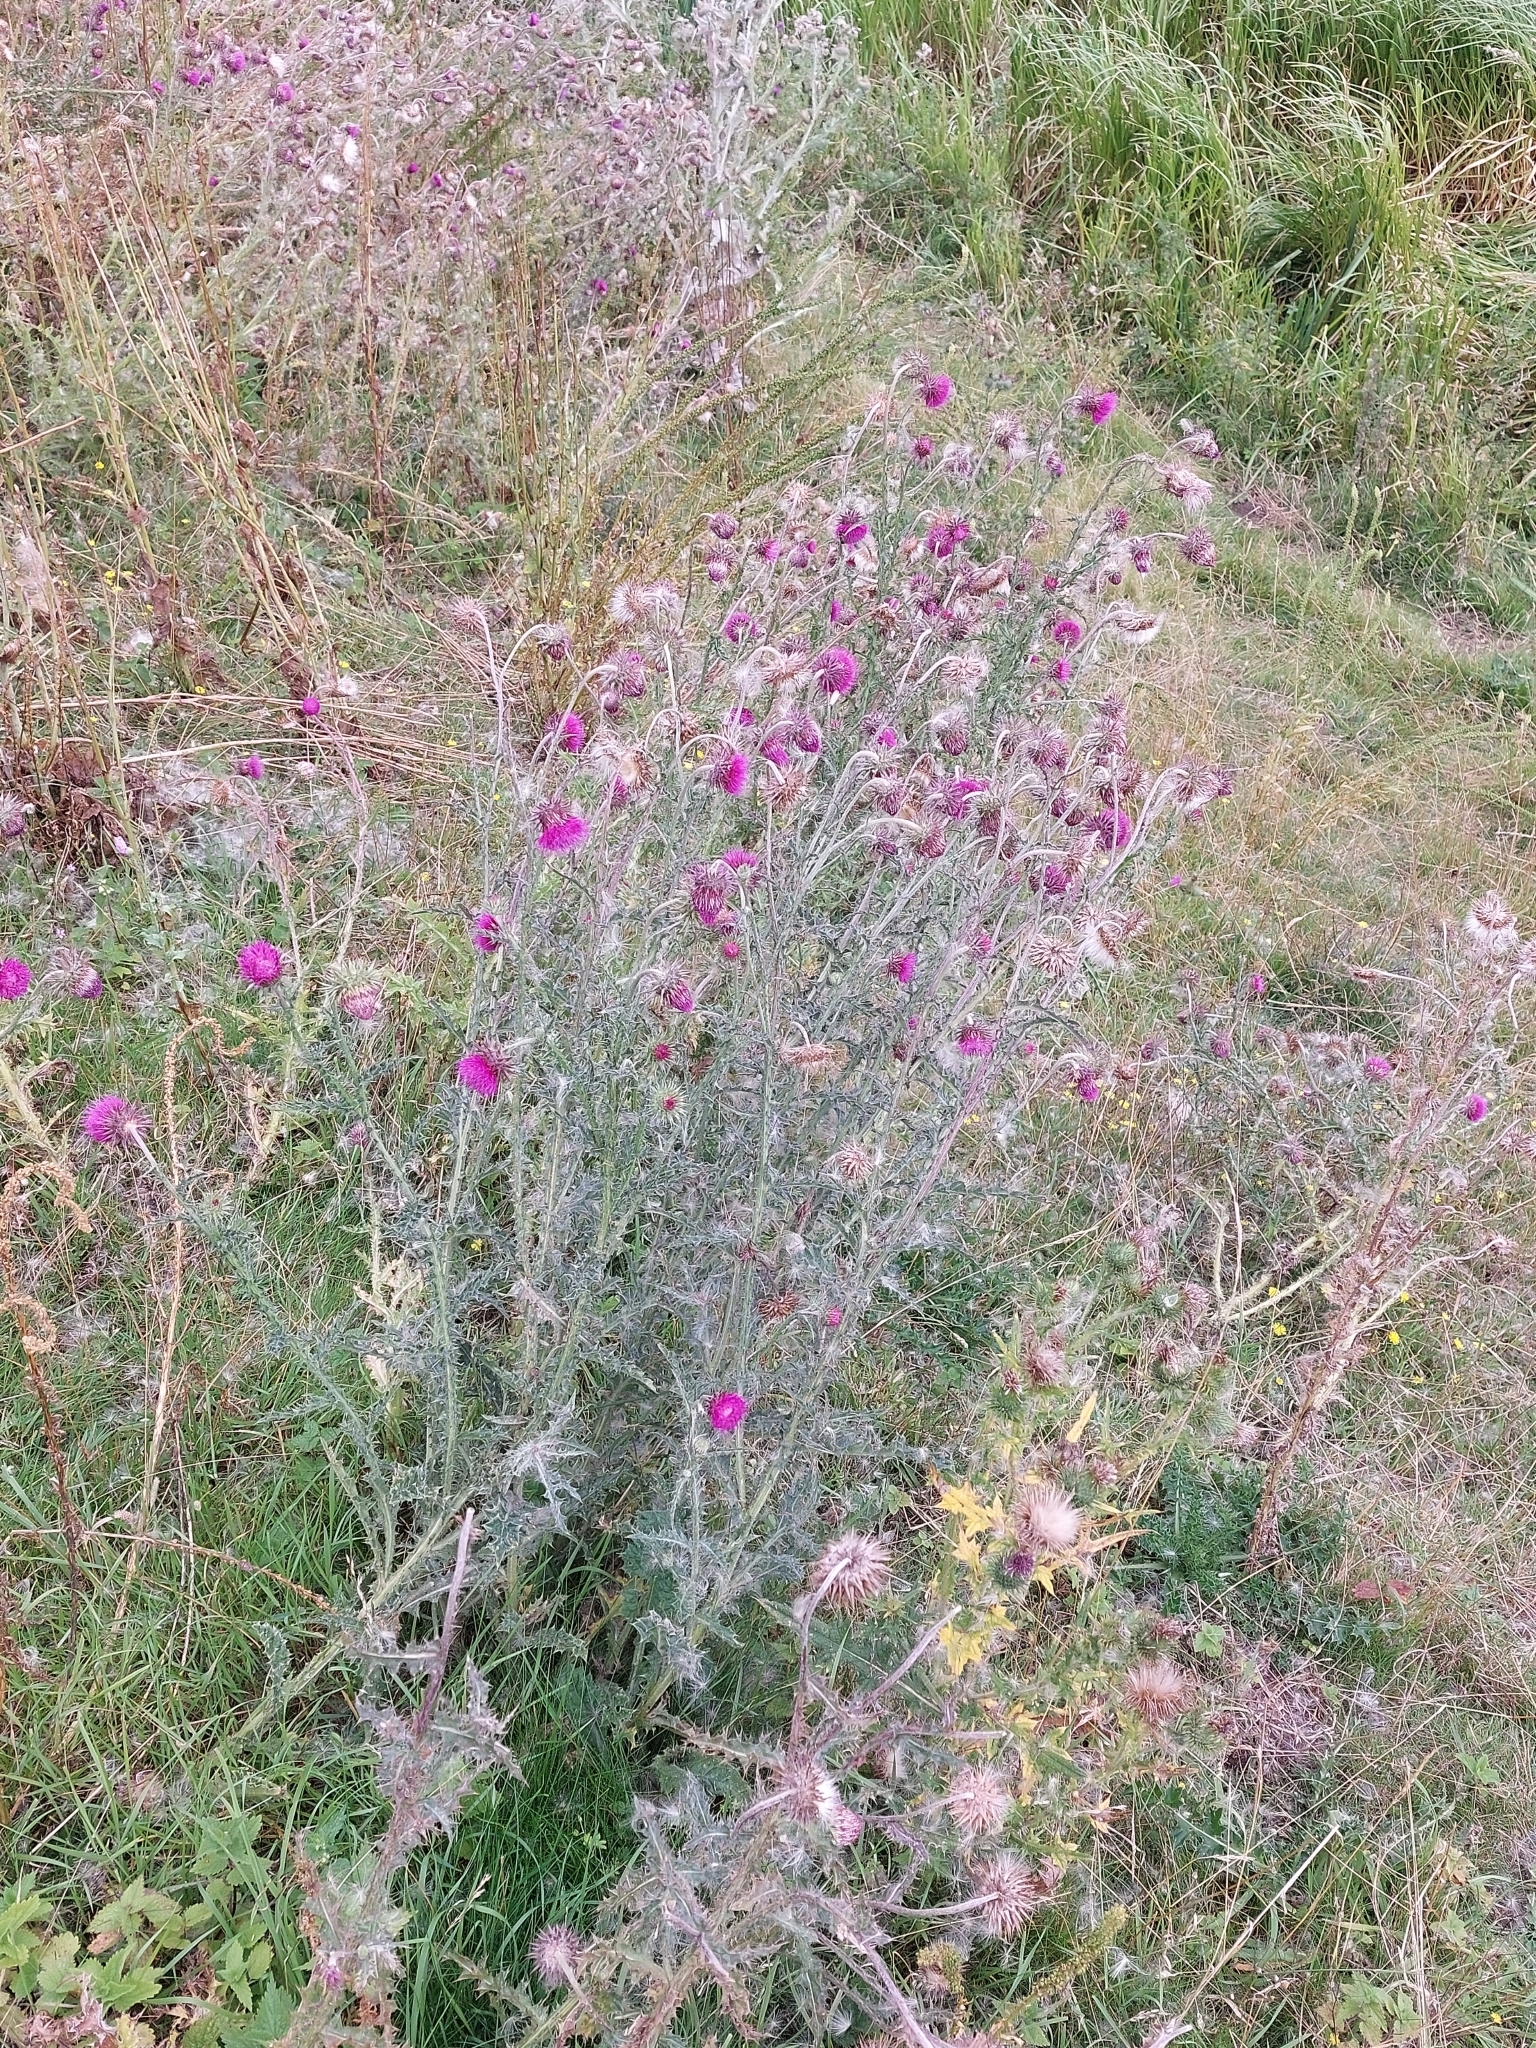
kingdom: Plantae
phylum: Tracheophyta
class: Magnoliopsida
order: Asterales
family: Asteraceae
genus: Carduus
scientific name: Carduus nutans
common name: Musk thistle
